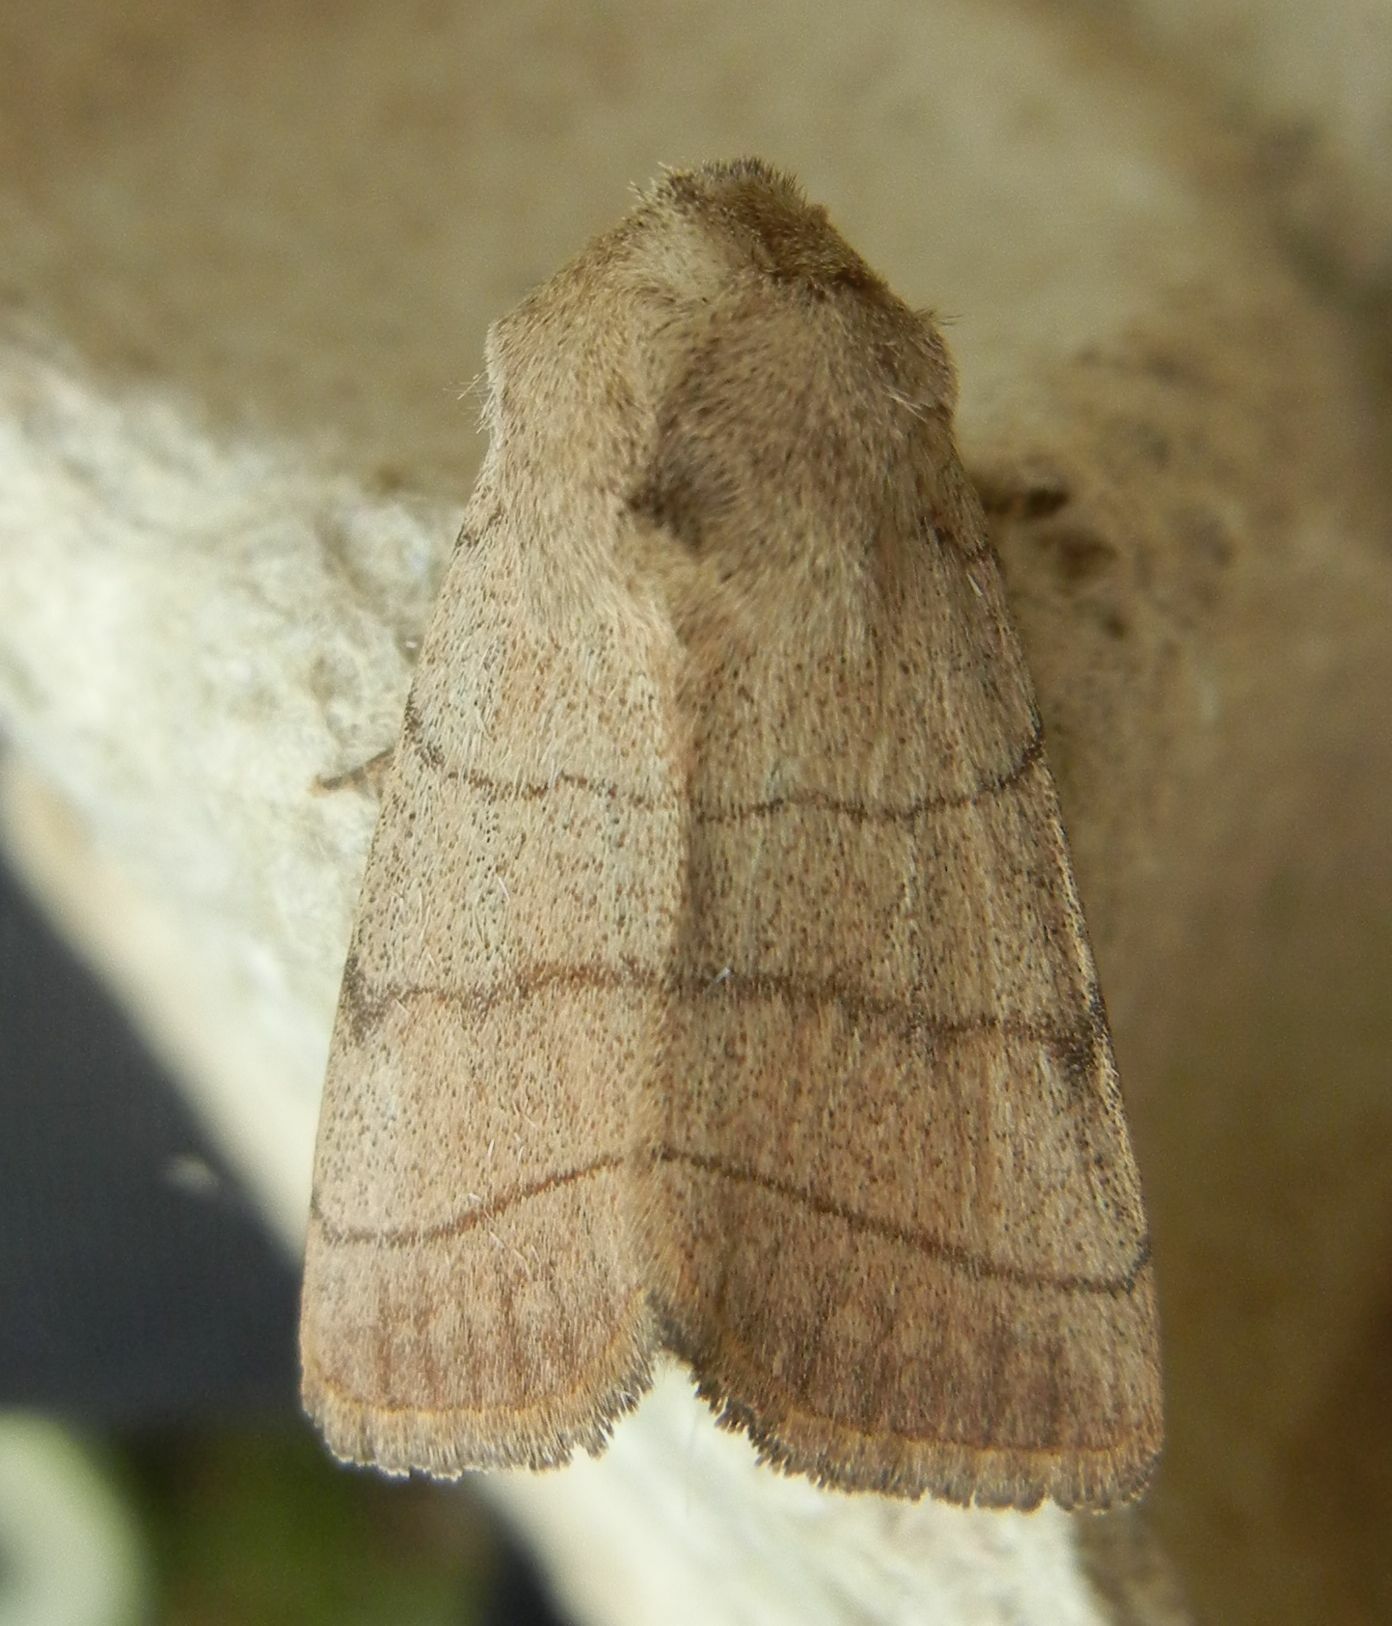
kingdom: Animalia
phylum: Arthropoda
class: Insecta
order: Lepidoptera
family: Noctuidae
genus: Charanyca
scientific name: Charanyca trigrammica
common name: Treble lines
